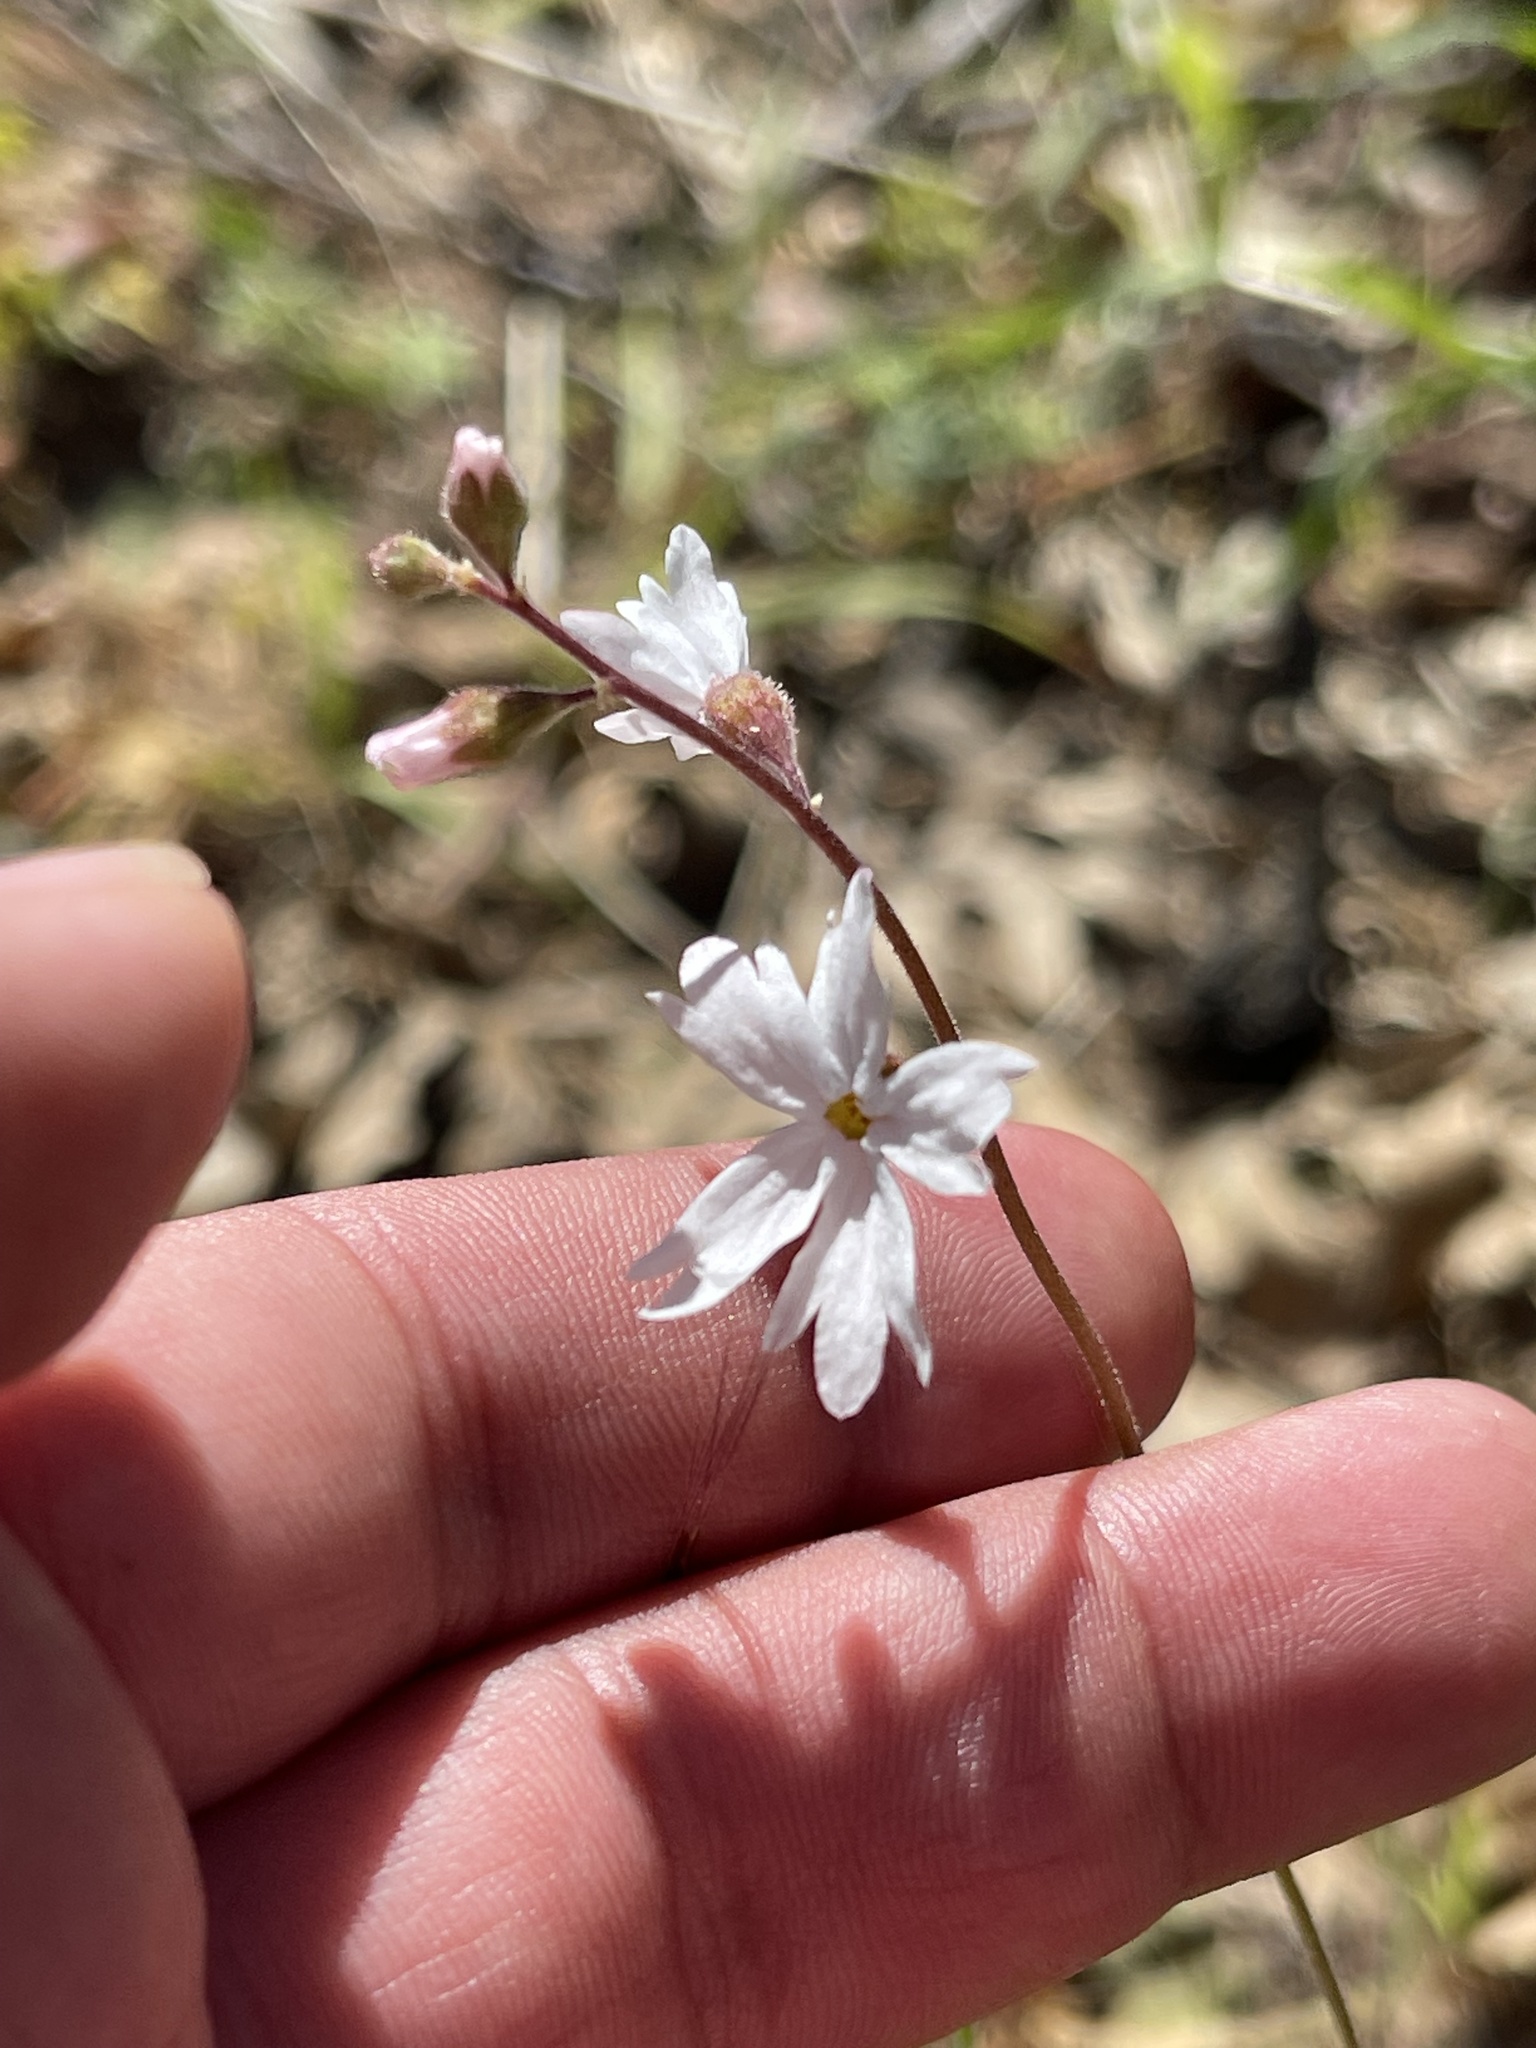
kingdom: Plantae
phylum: Tracheophyta
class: Magnoliopsida
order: Saxifragales
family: Saxifragaceae
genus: Lithophragma
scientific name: Lithophragma affine
